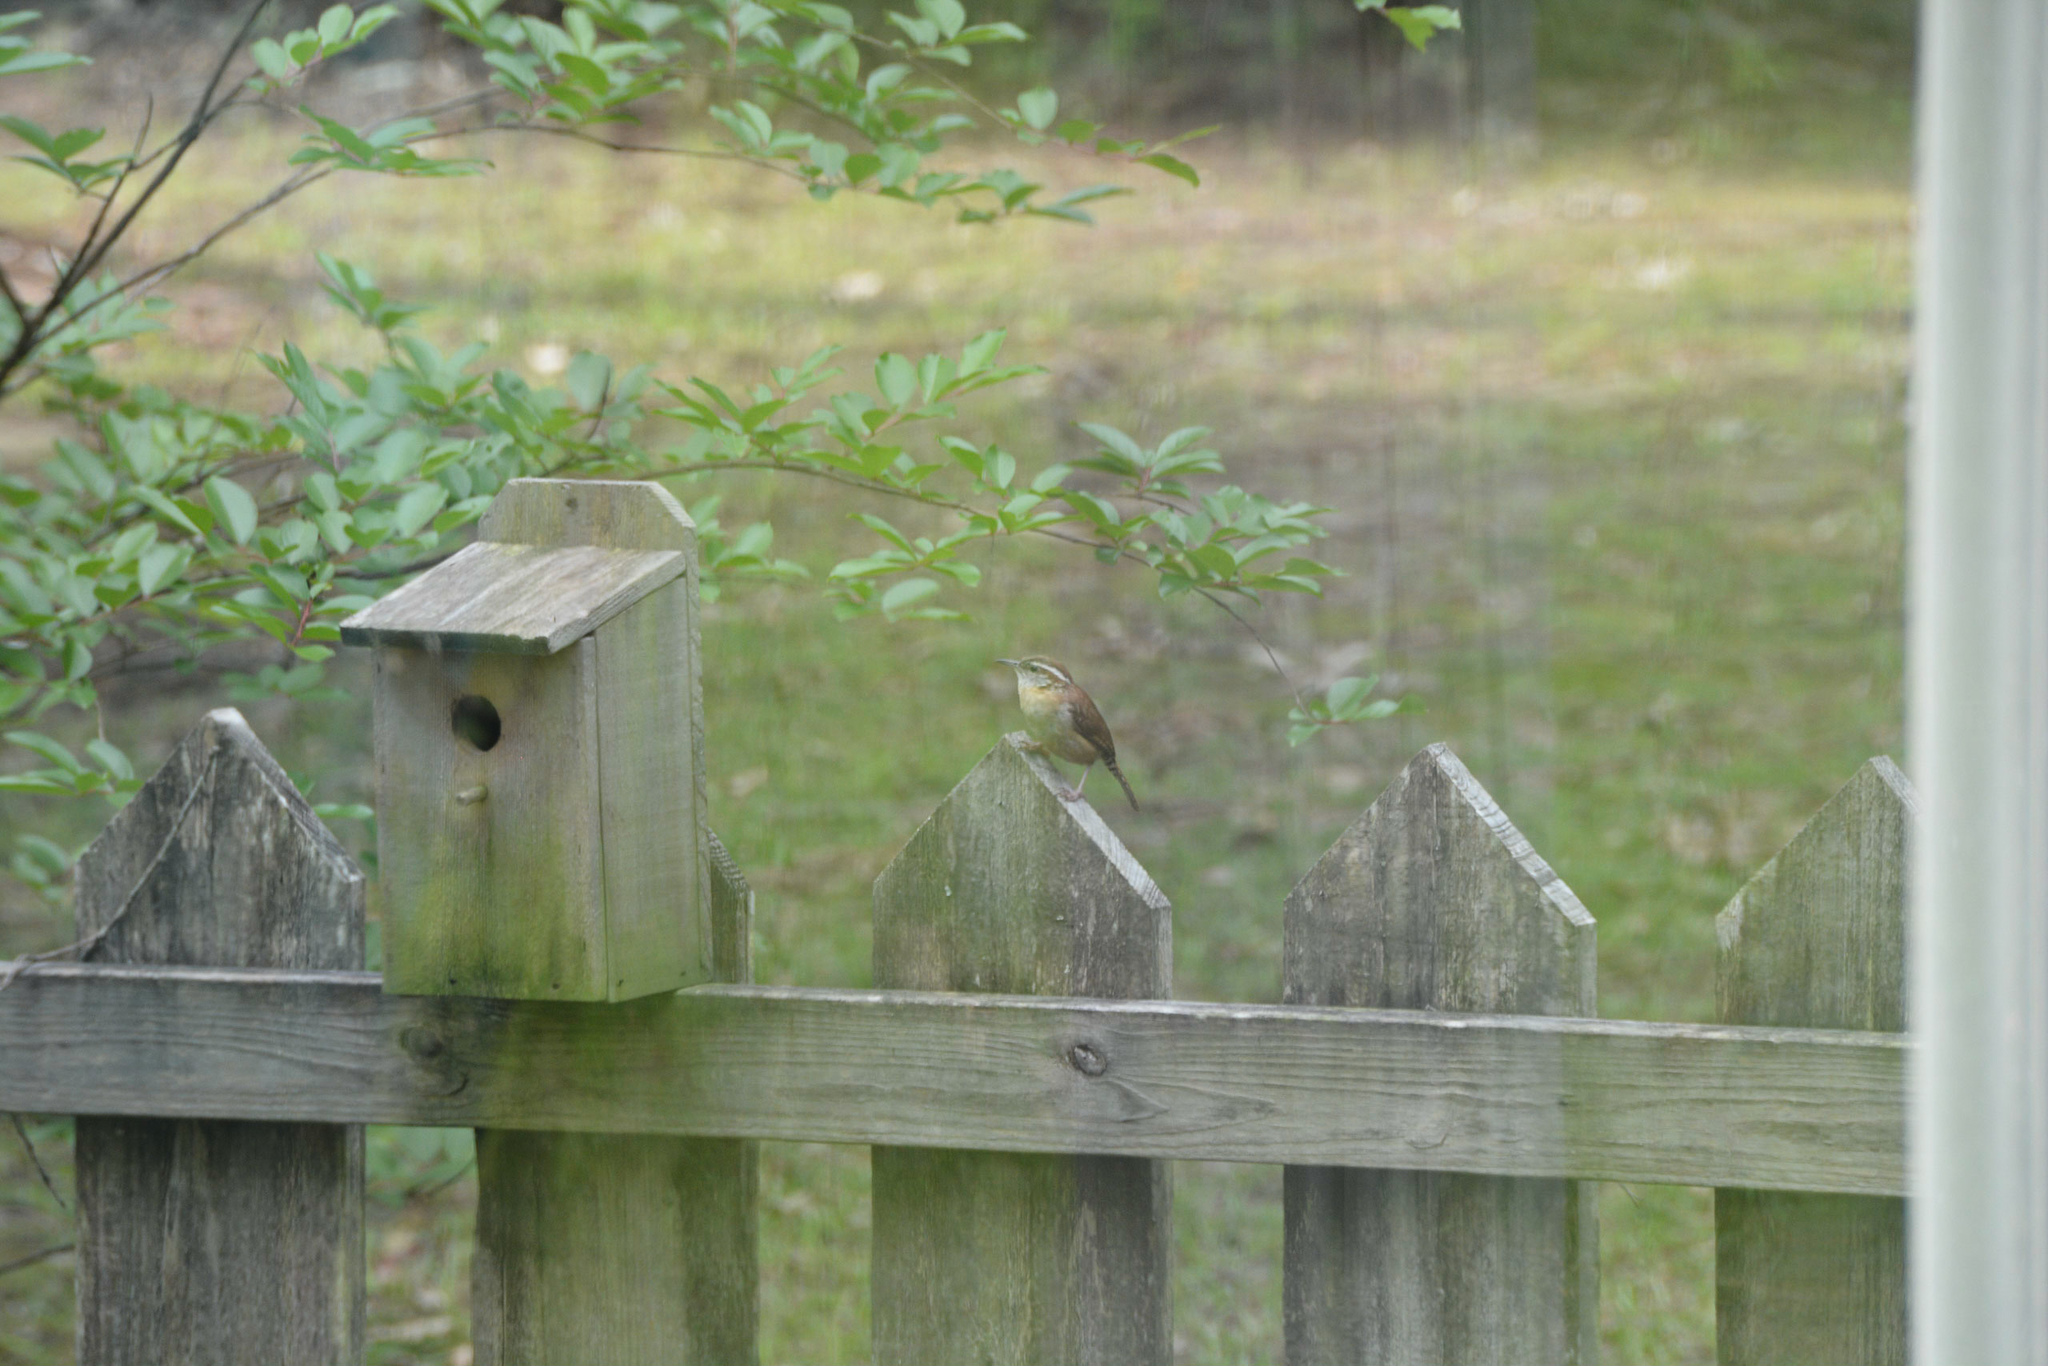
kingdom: Animalia
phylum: Chordata
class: Aves
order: Passeriformes
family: Troglodytidae
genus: Thryothorus
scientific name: Thryothorus ludovicianus
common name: Carolina wren
